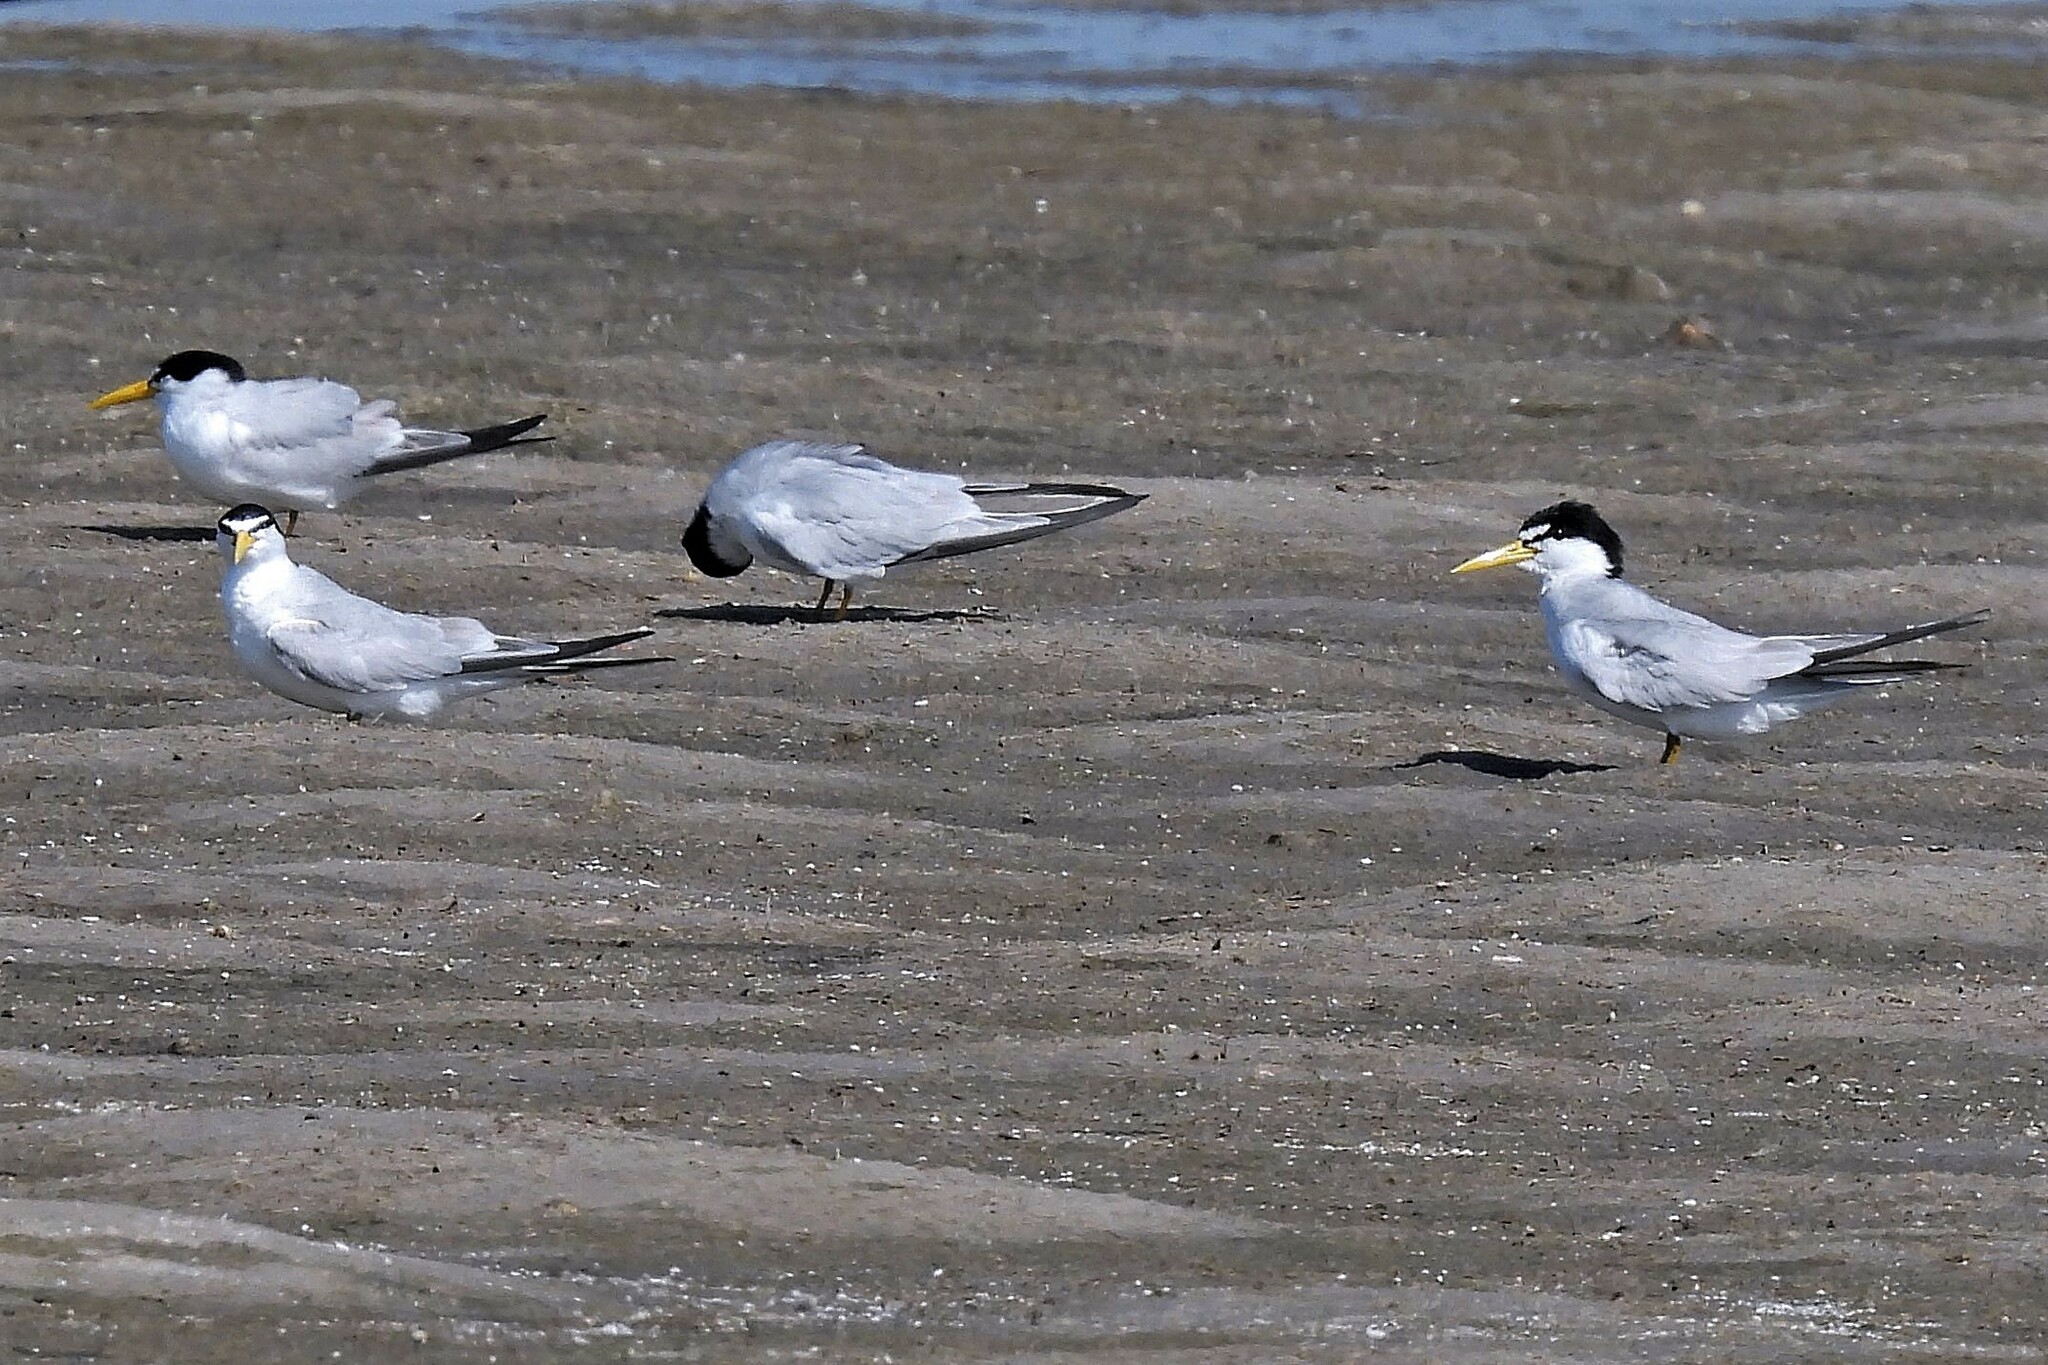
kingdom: Animalia
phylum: Chordata
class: Aves
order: Charadriiformes
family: Laridae
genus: Sternula
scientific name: Sternula superciliaris
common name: Yellow-billed tern
